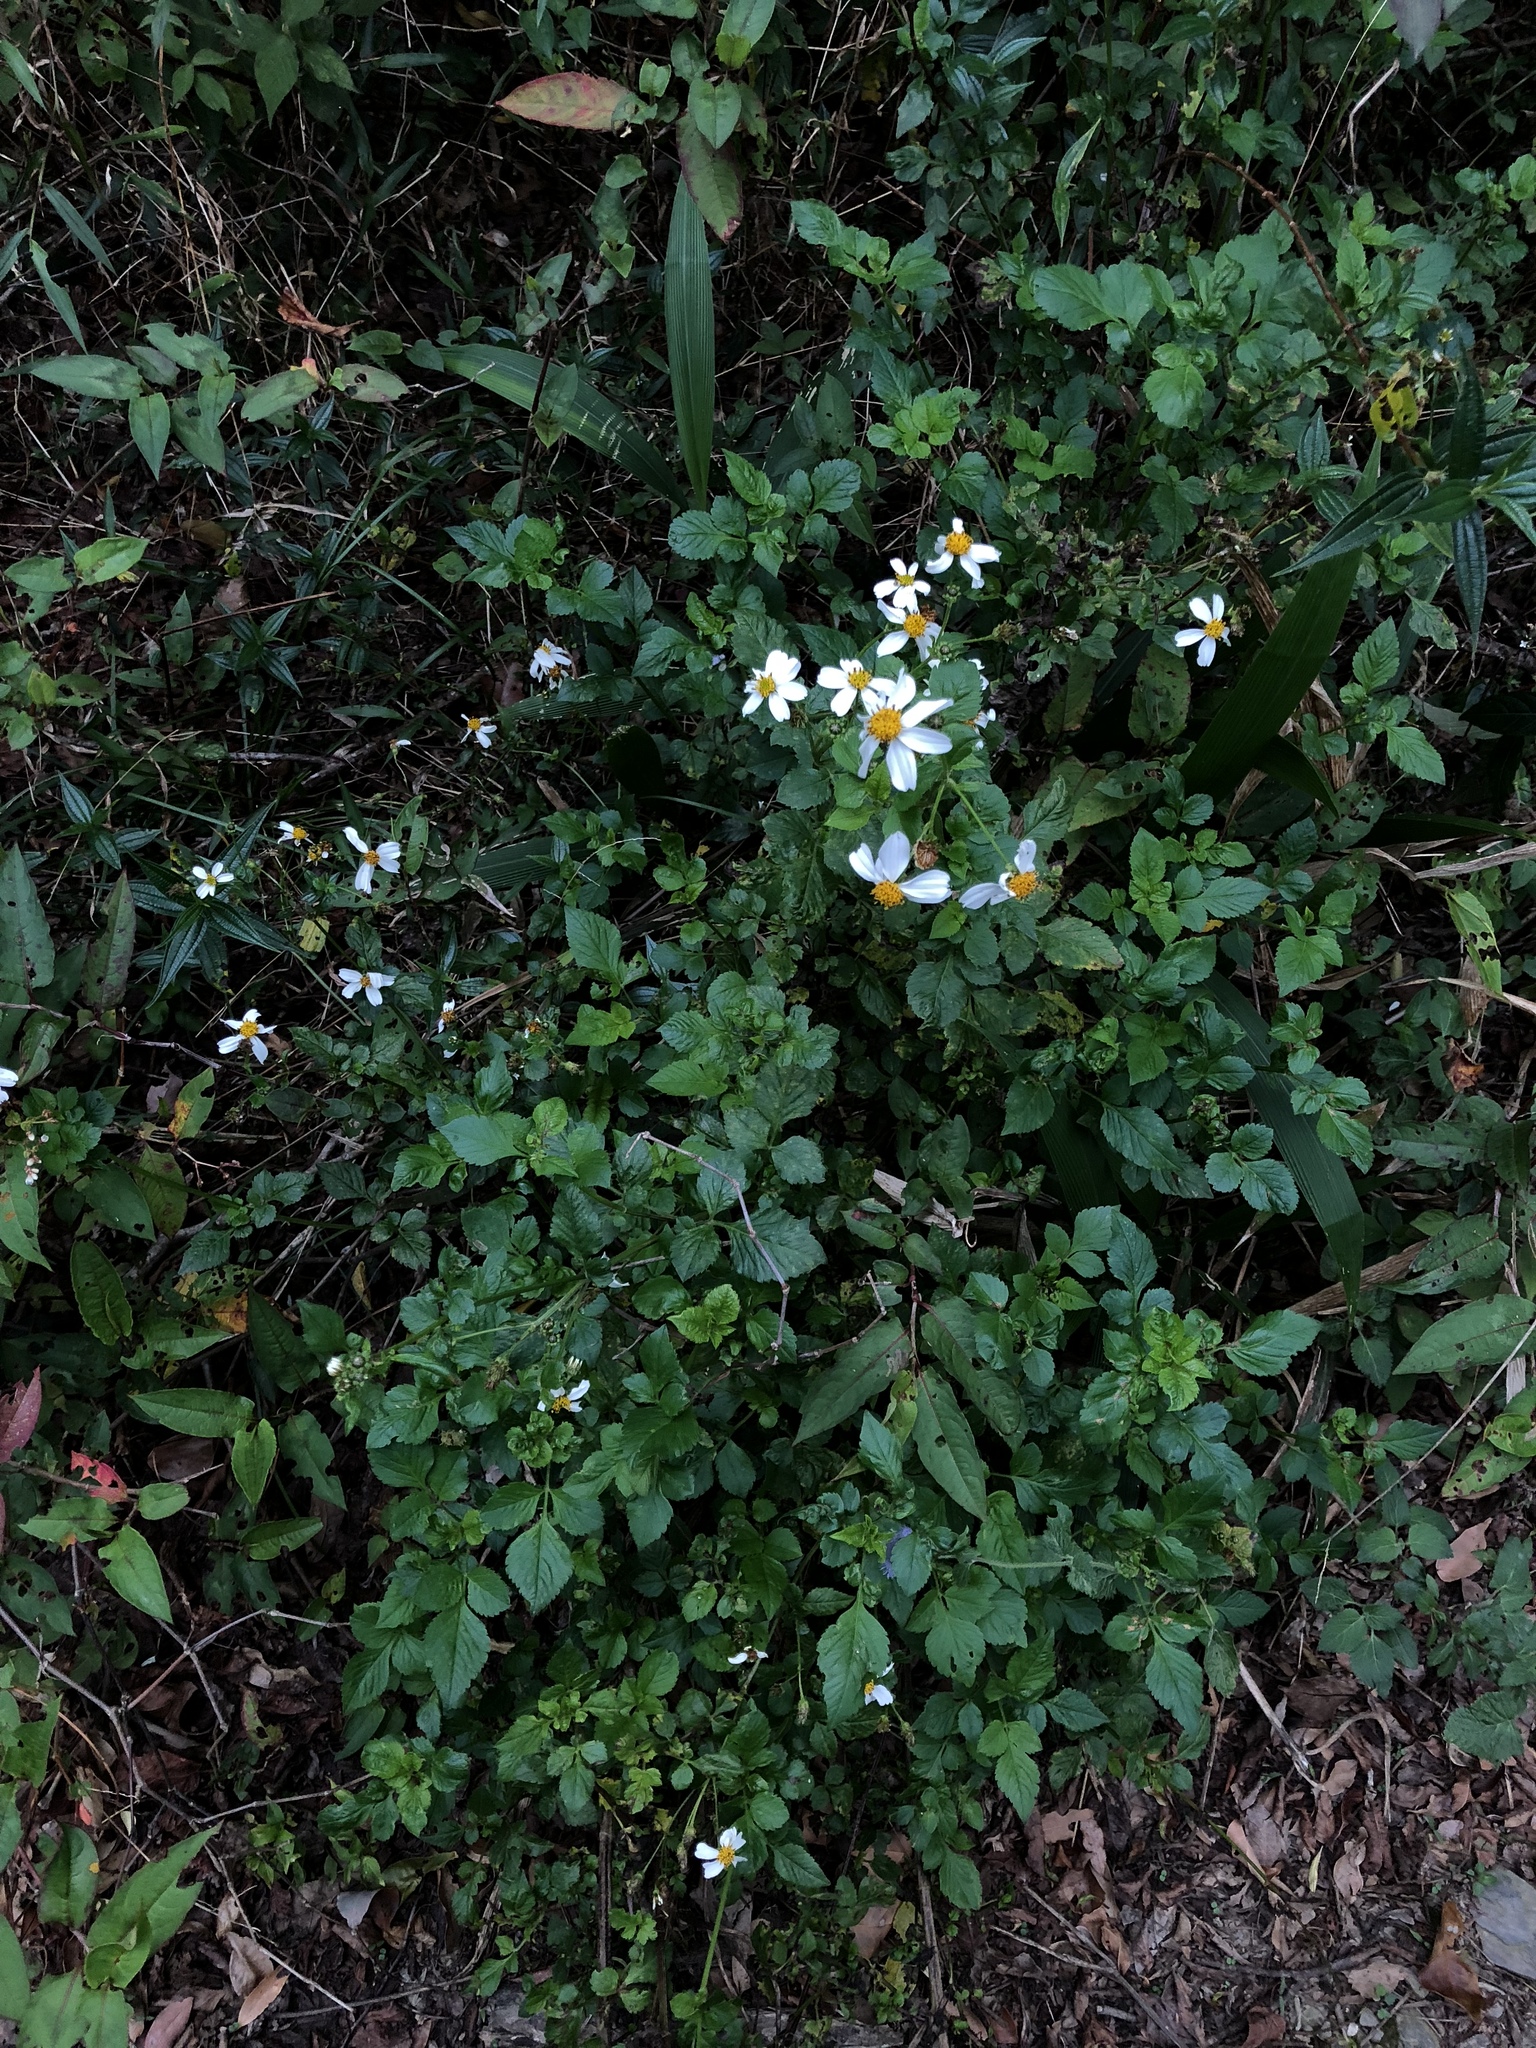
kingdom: Plantae
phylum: Tracheophyta
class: Magnoliopsida
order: Asterales
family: Asteraceae
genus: Bidens
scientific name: Bidens alba
